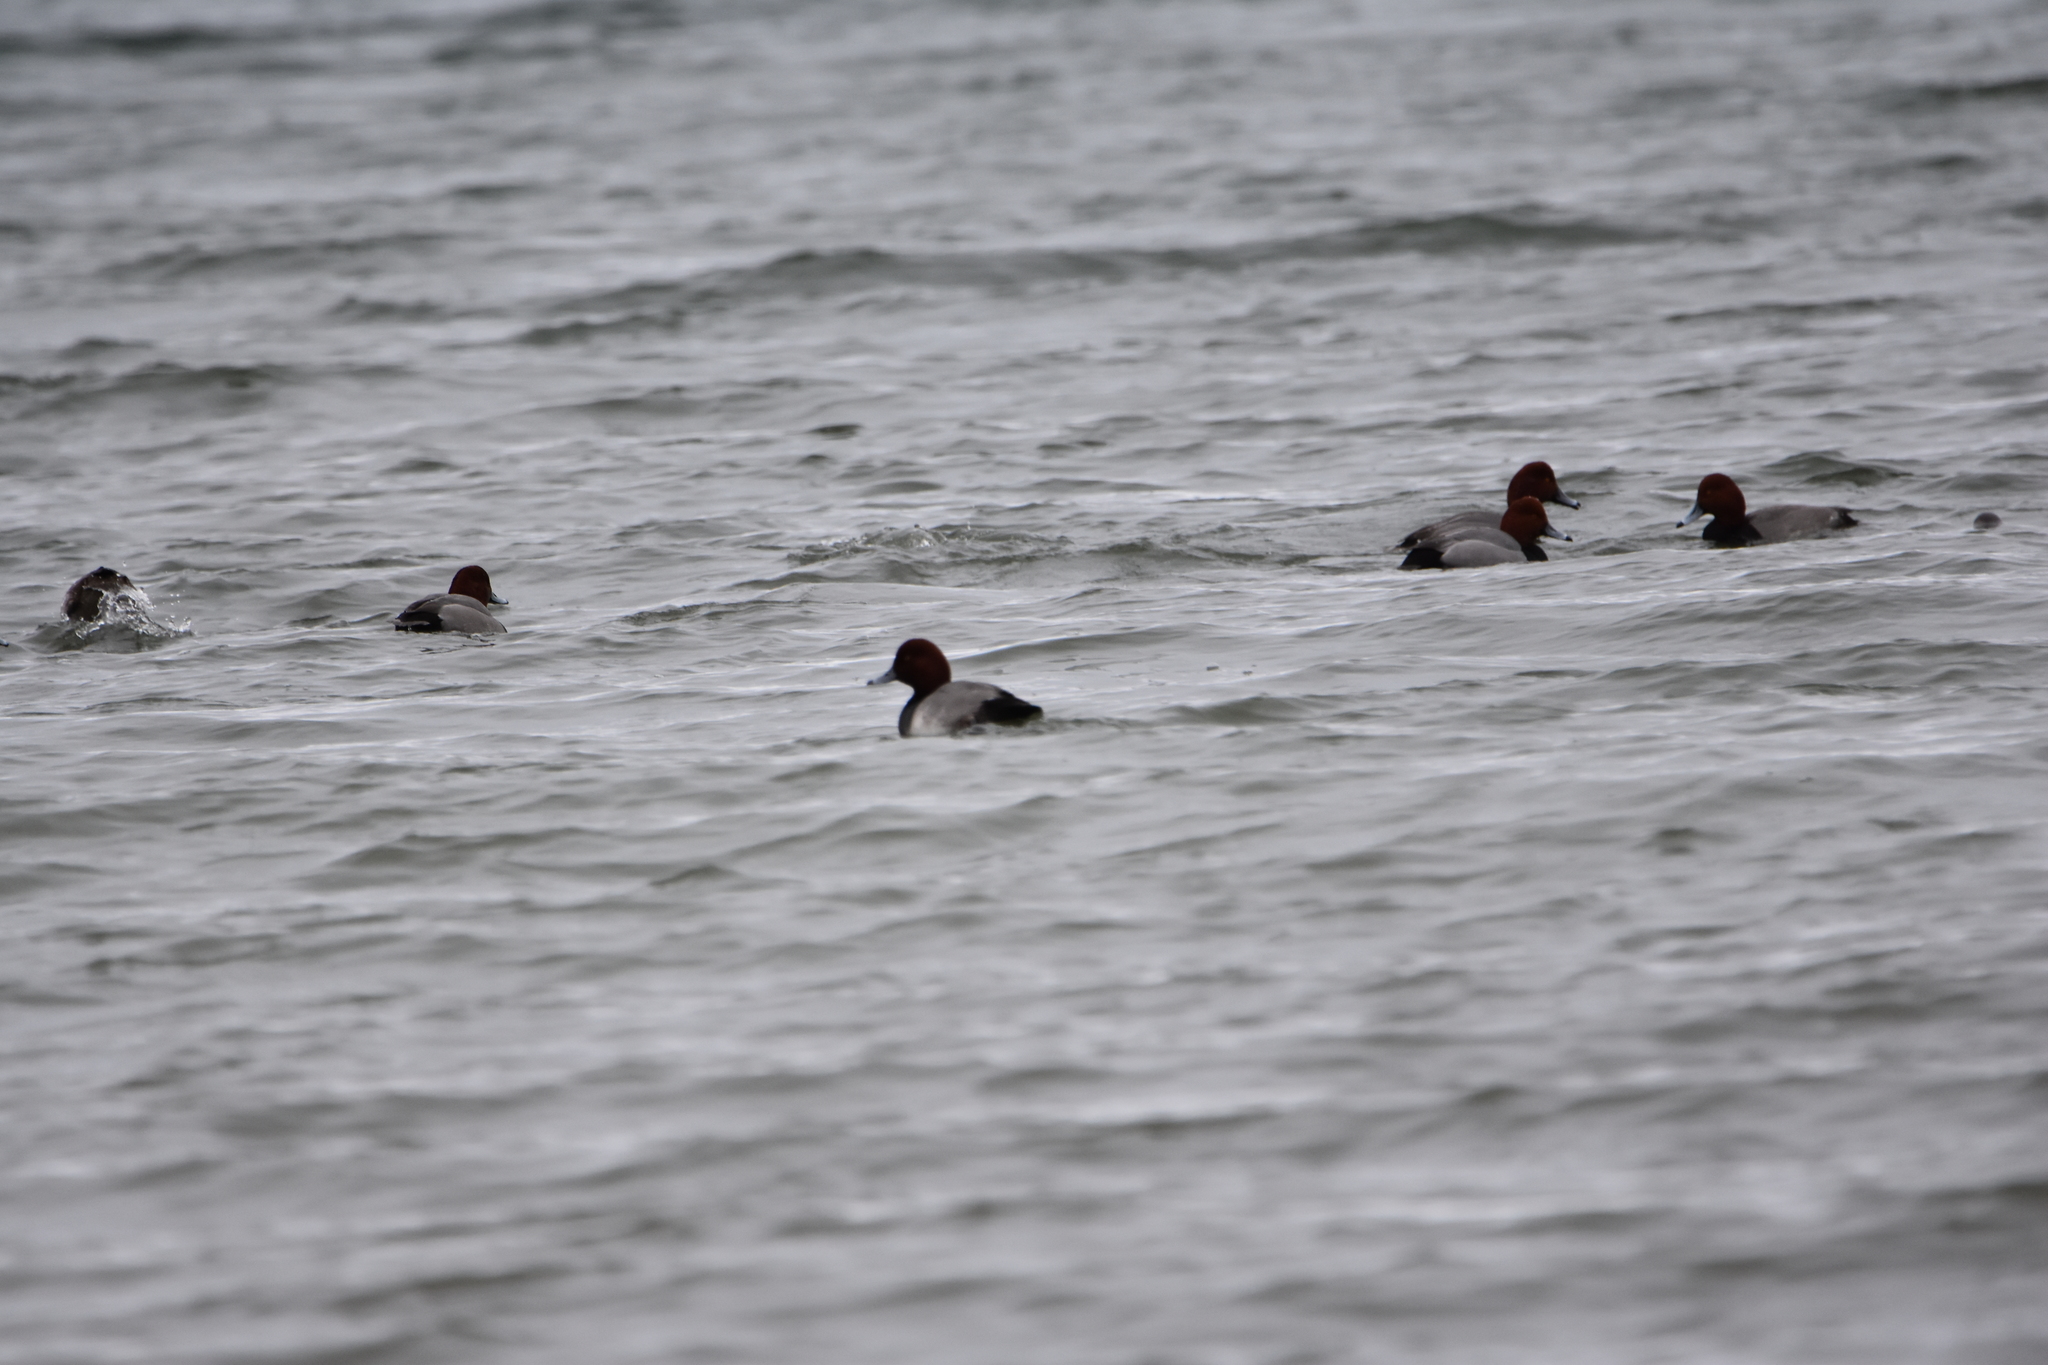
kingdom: Animalia
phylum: Chordata
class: Aves
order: Anseriformes
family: Anatidae
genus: Aythya
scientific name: Aythya americana
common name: Redhead
